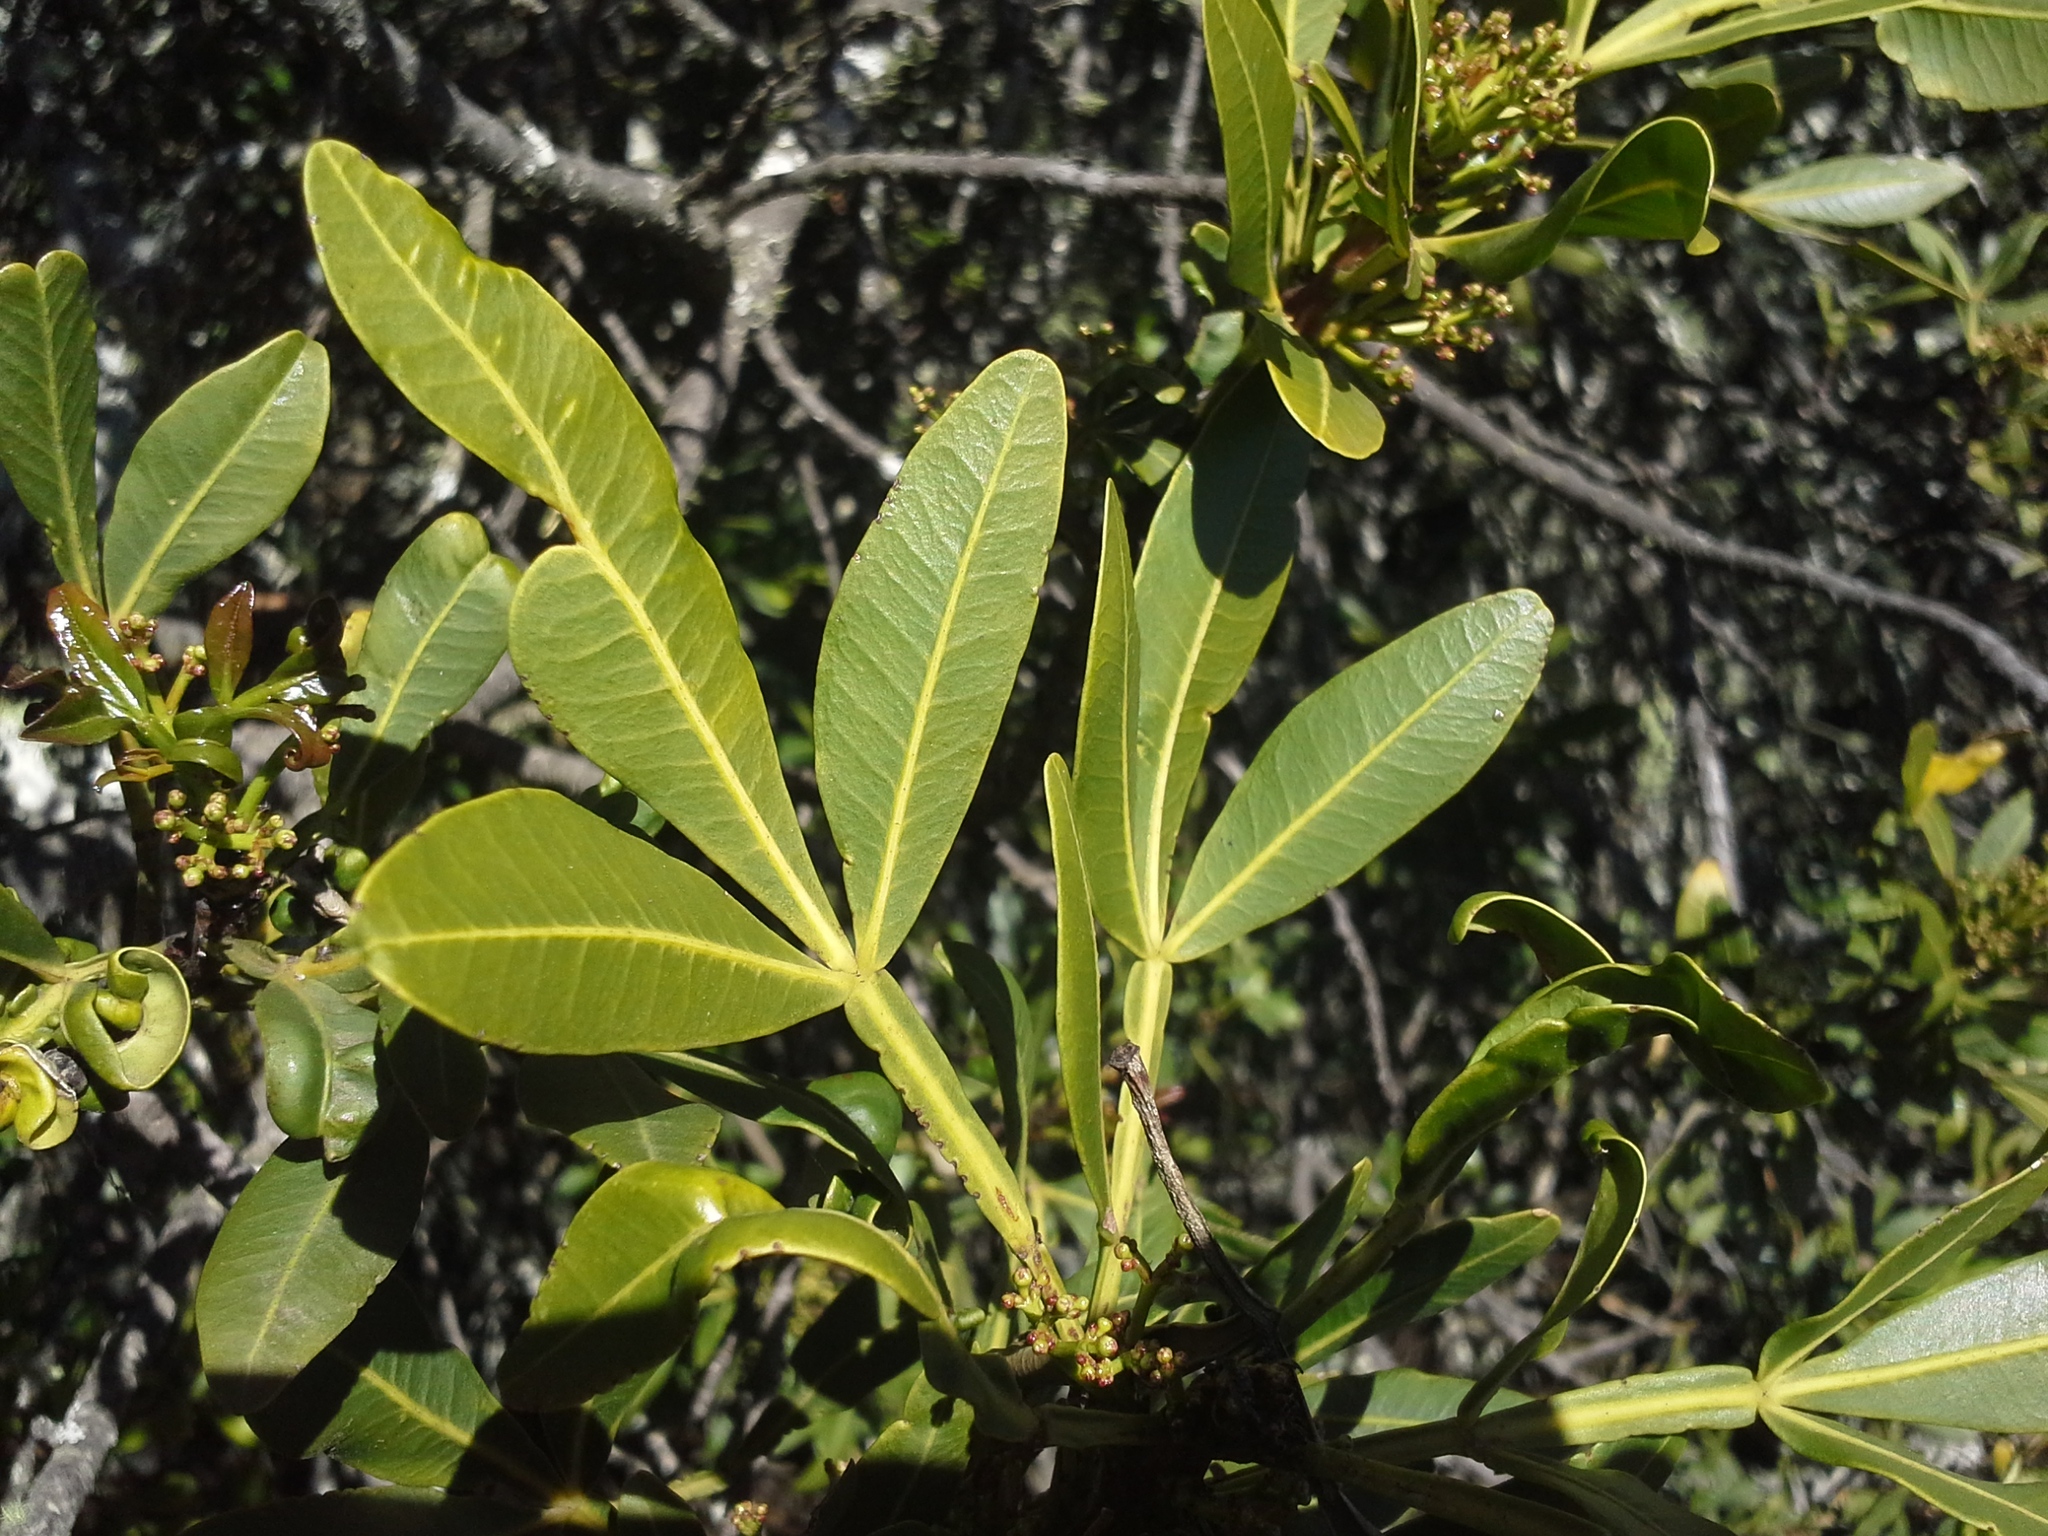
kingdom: Plantae
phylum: Tracheophyta
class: Magnoliopsida
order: Lamiales
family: Oleaceae
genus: Schrebera
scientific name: Schrebera alata
